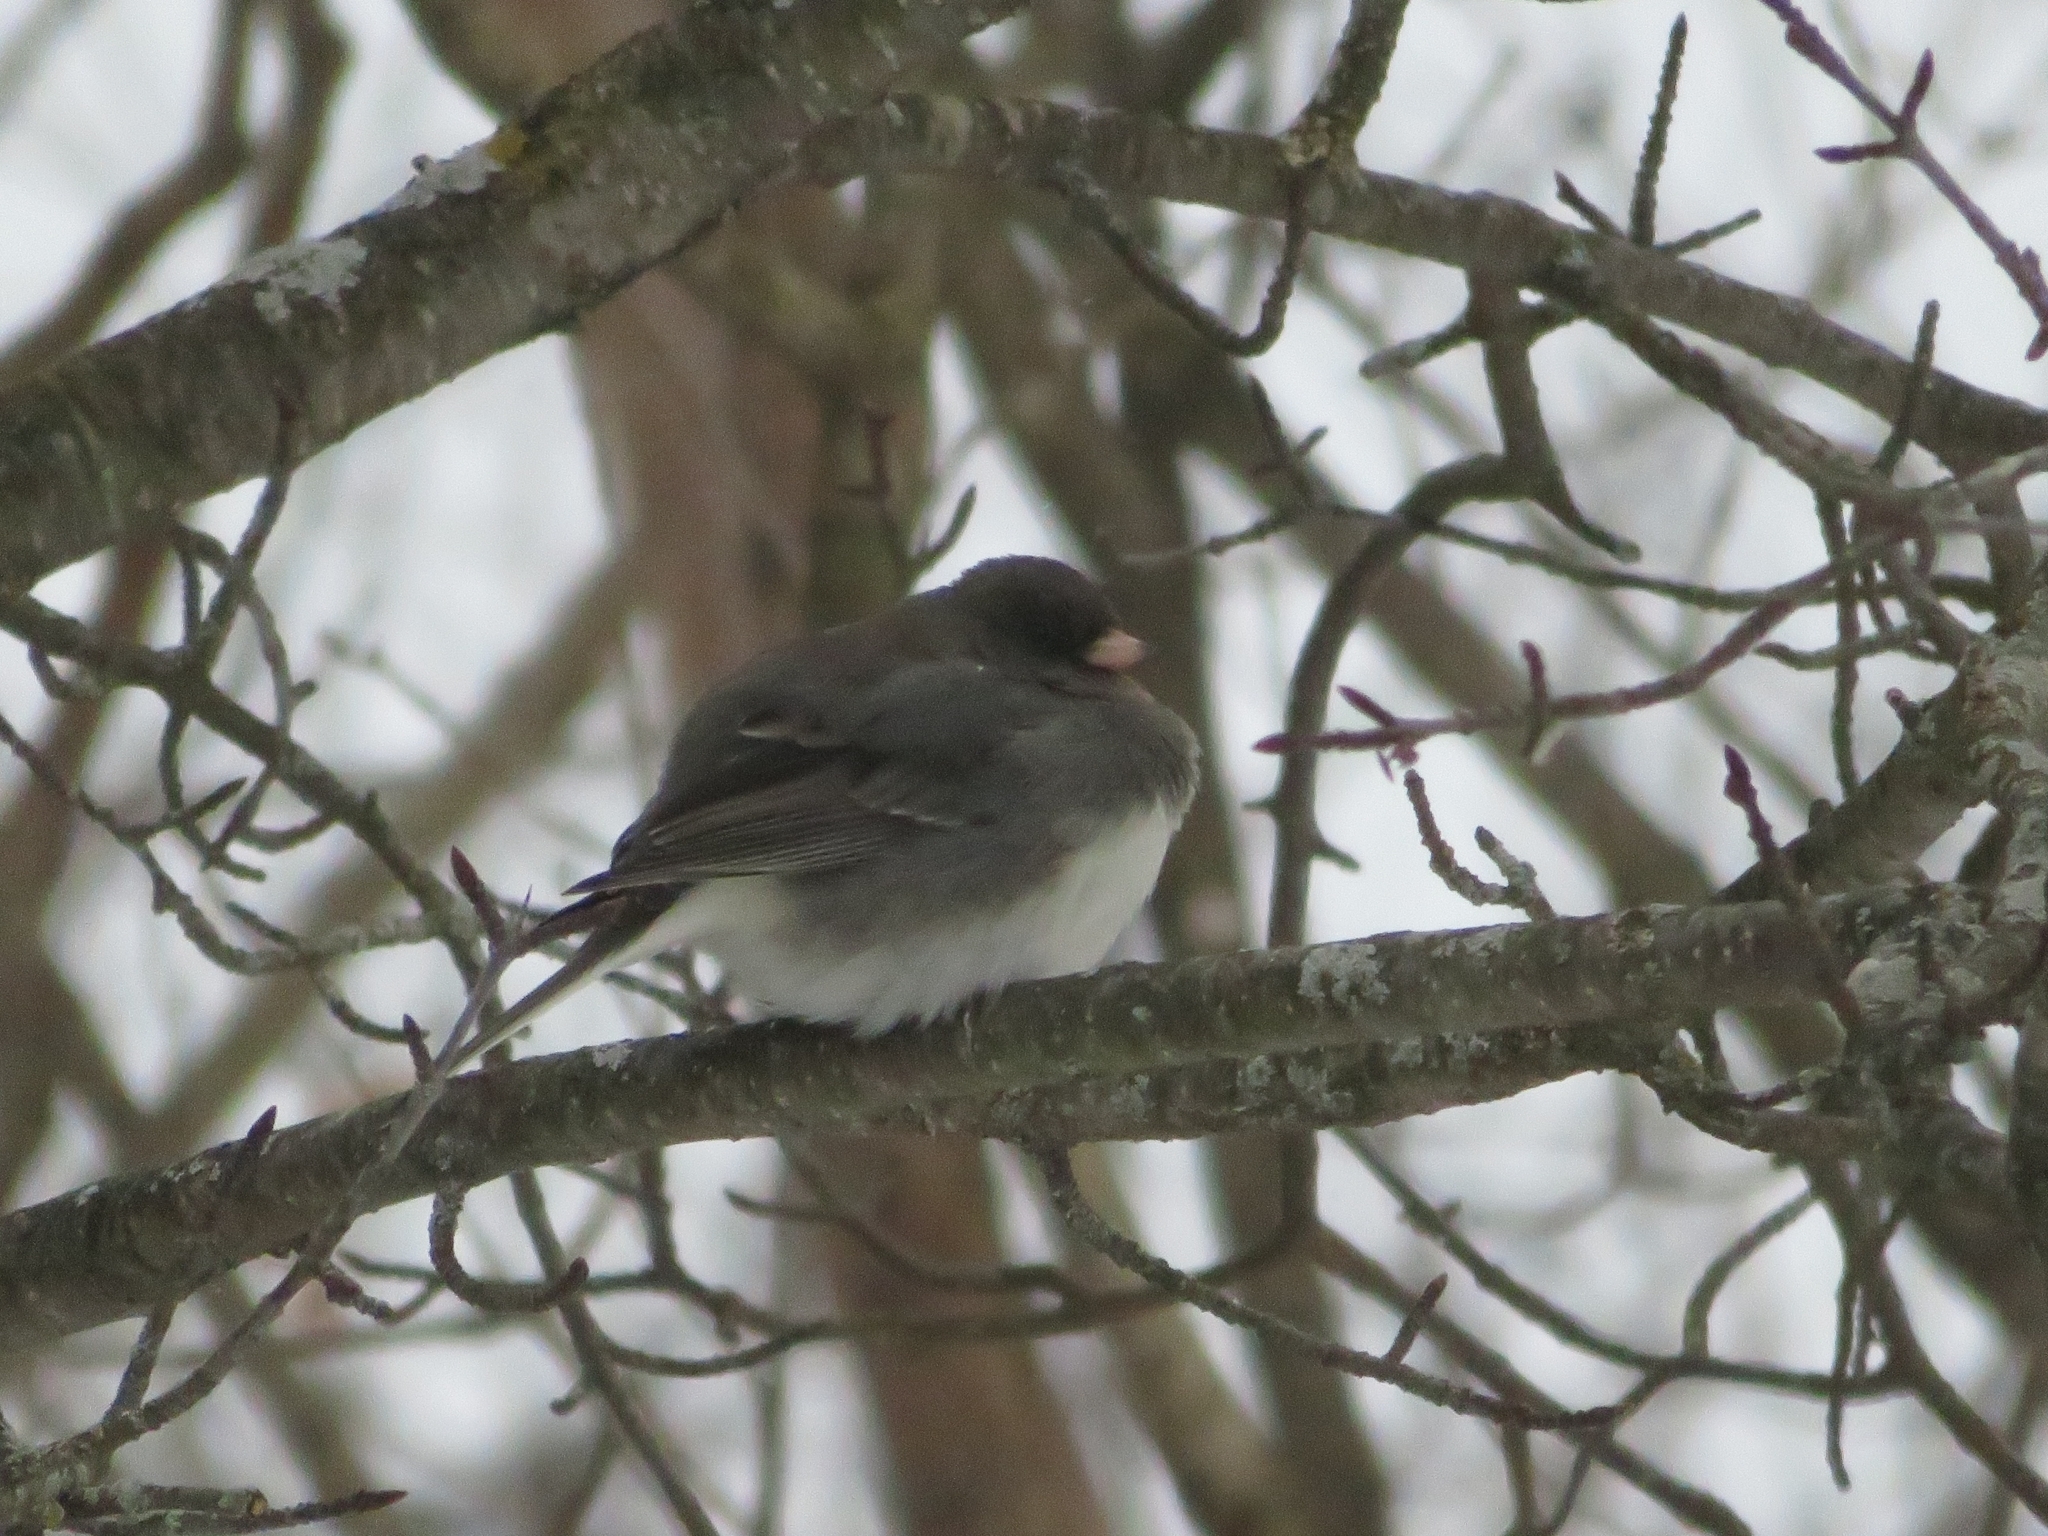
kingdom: Animalia
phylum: Chordata
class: Aves
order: Passeriformes
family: Passerellidae
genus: Junco
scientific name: Junco hyemalis
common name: Dark-eyed junco
